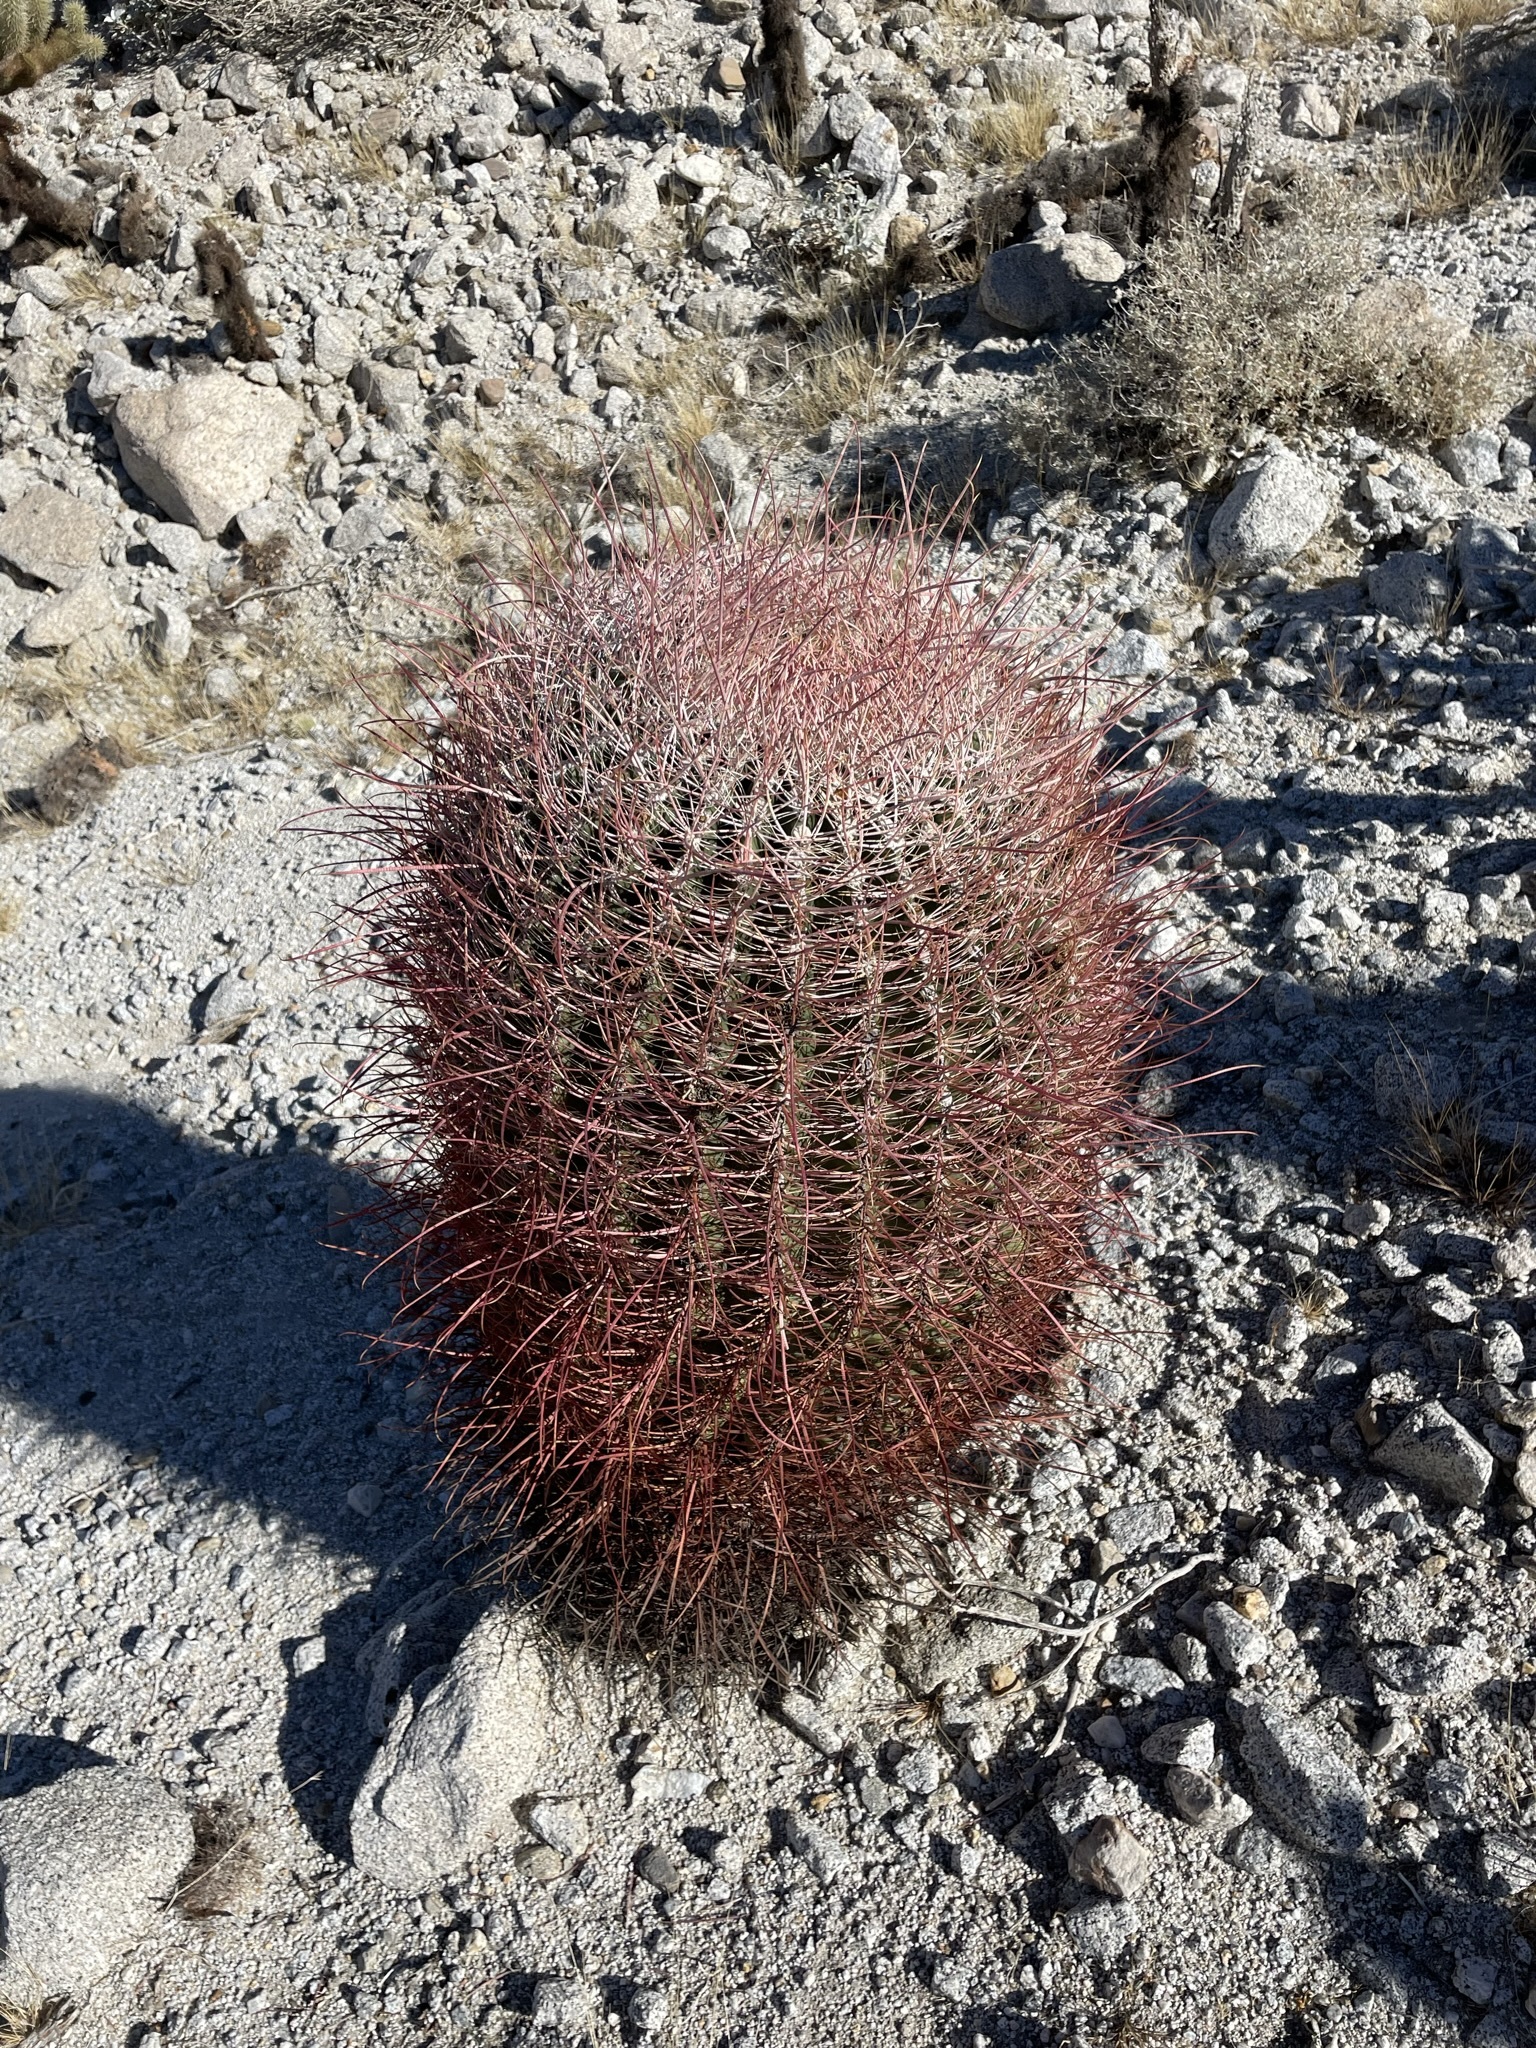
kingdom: Plantae
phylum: Tracheophyta
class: Magnoliopsida
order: Caryophyllales
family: Cactaceae
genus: Ferocactus
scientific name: Ferocactus cylindraceus
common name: California barrel cactus
